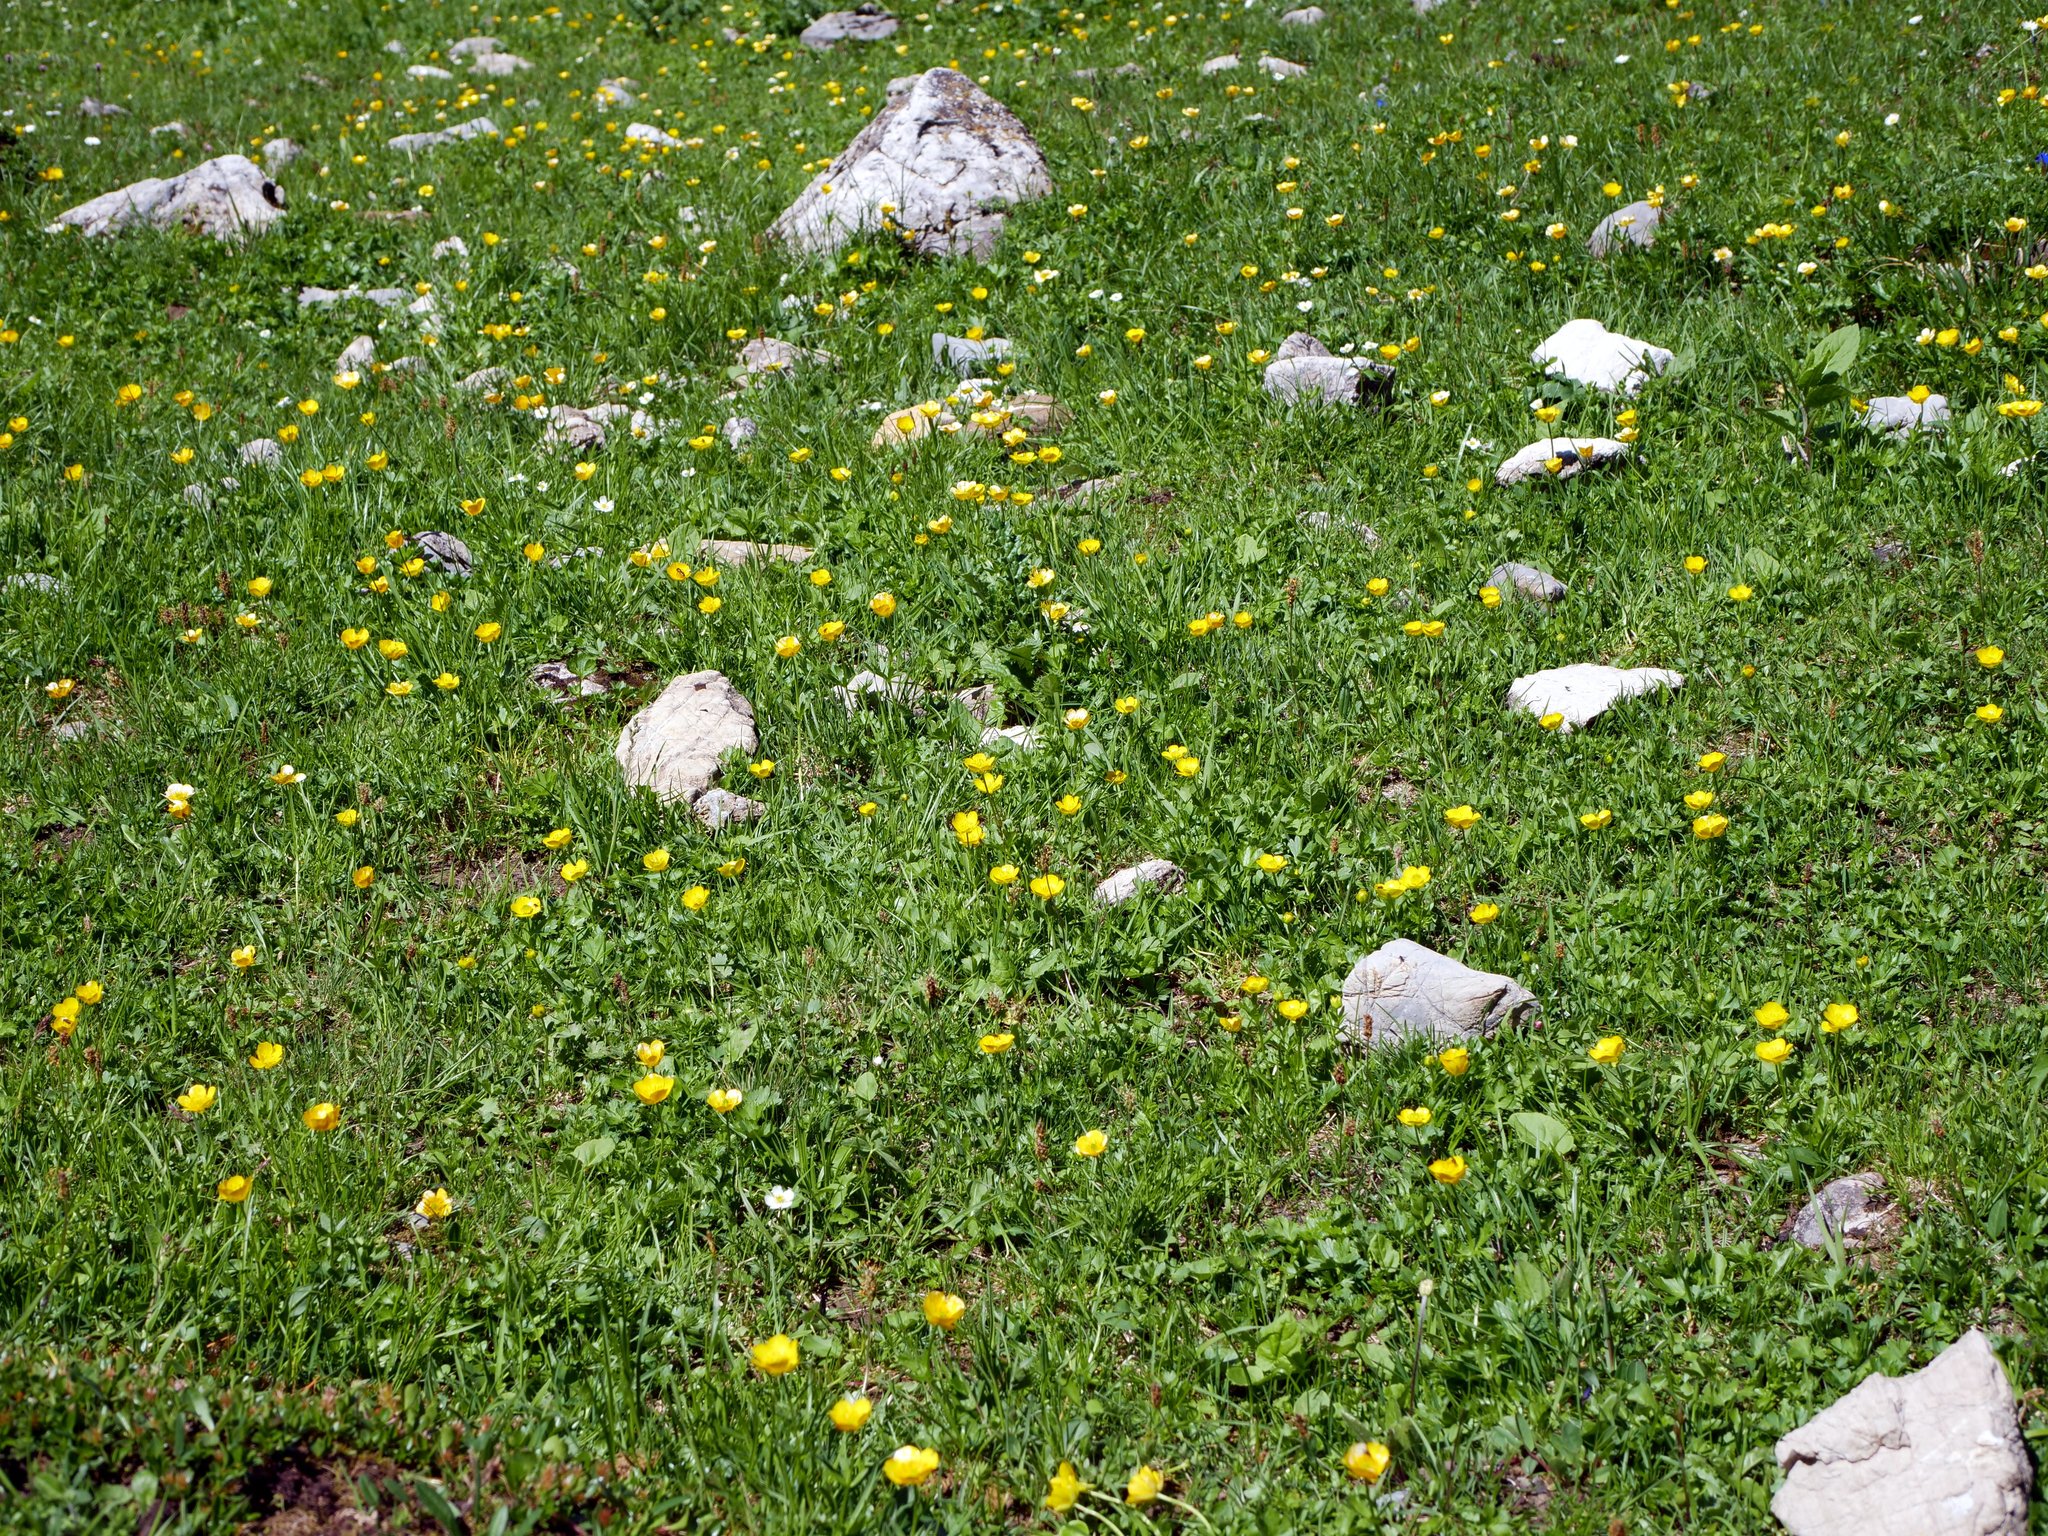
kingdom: Plantae
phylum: Tracheophyta
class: Magnoliopsida
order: Ranunculales
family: Ranunculaceae
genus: Ranunculus
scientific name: Ranunculus montanus
